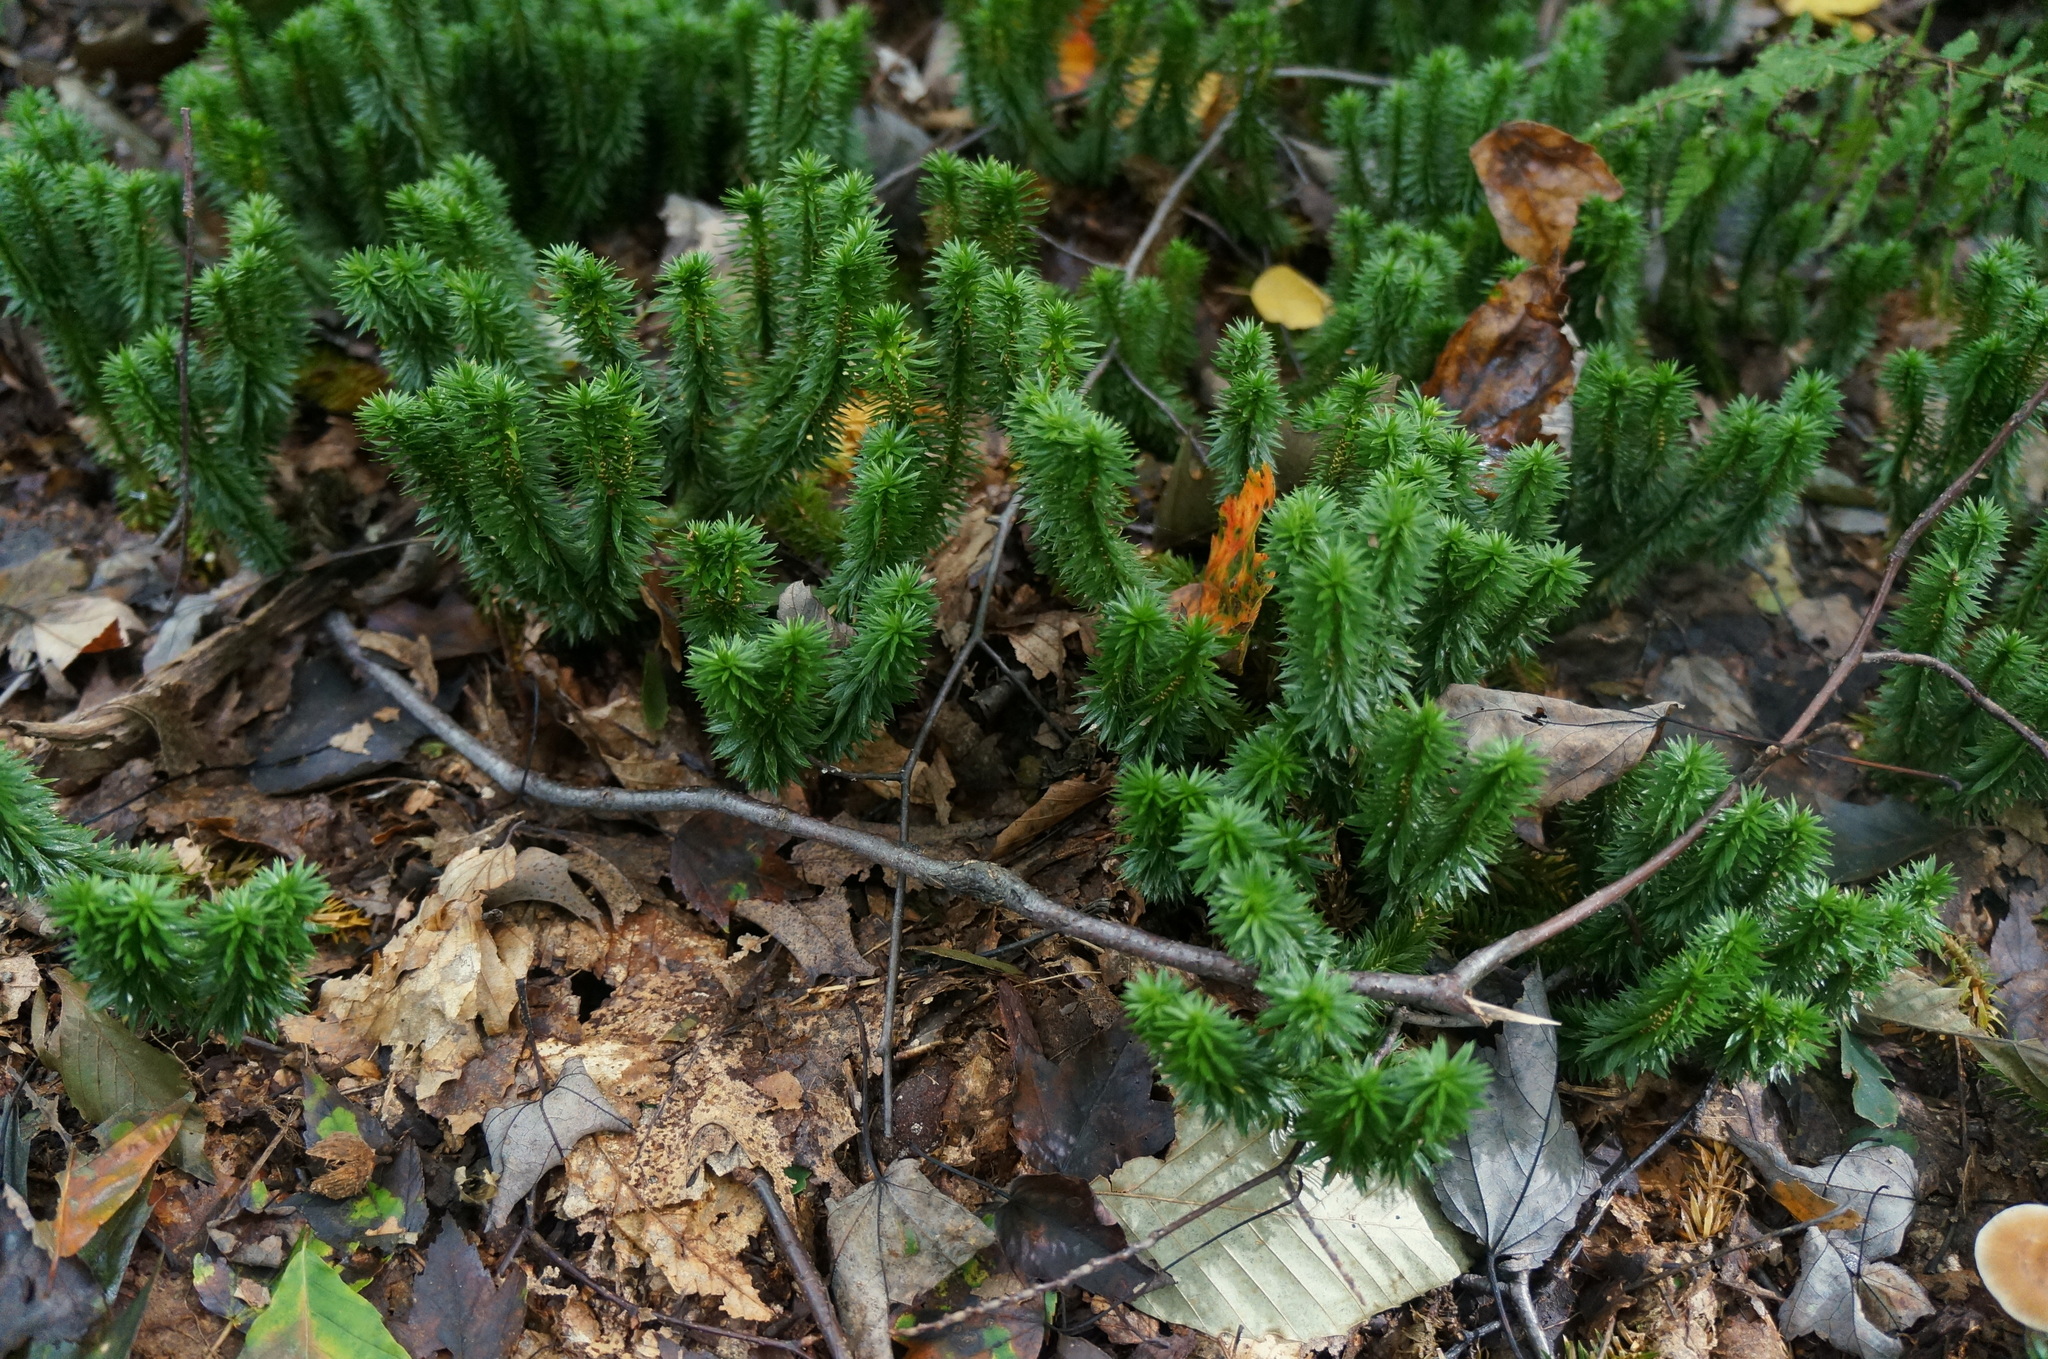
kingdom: Plantae
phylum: Tracheophyta
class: Lycopodiopsida
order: Lycopodiales
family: Lycopodiaceae
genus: Huperzia
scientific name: Huperzia lucidula
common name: Shining clubmoss
